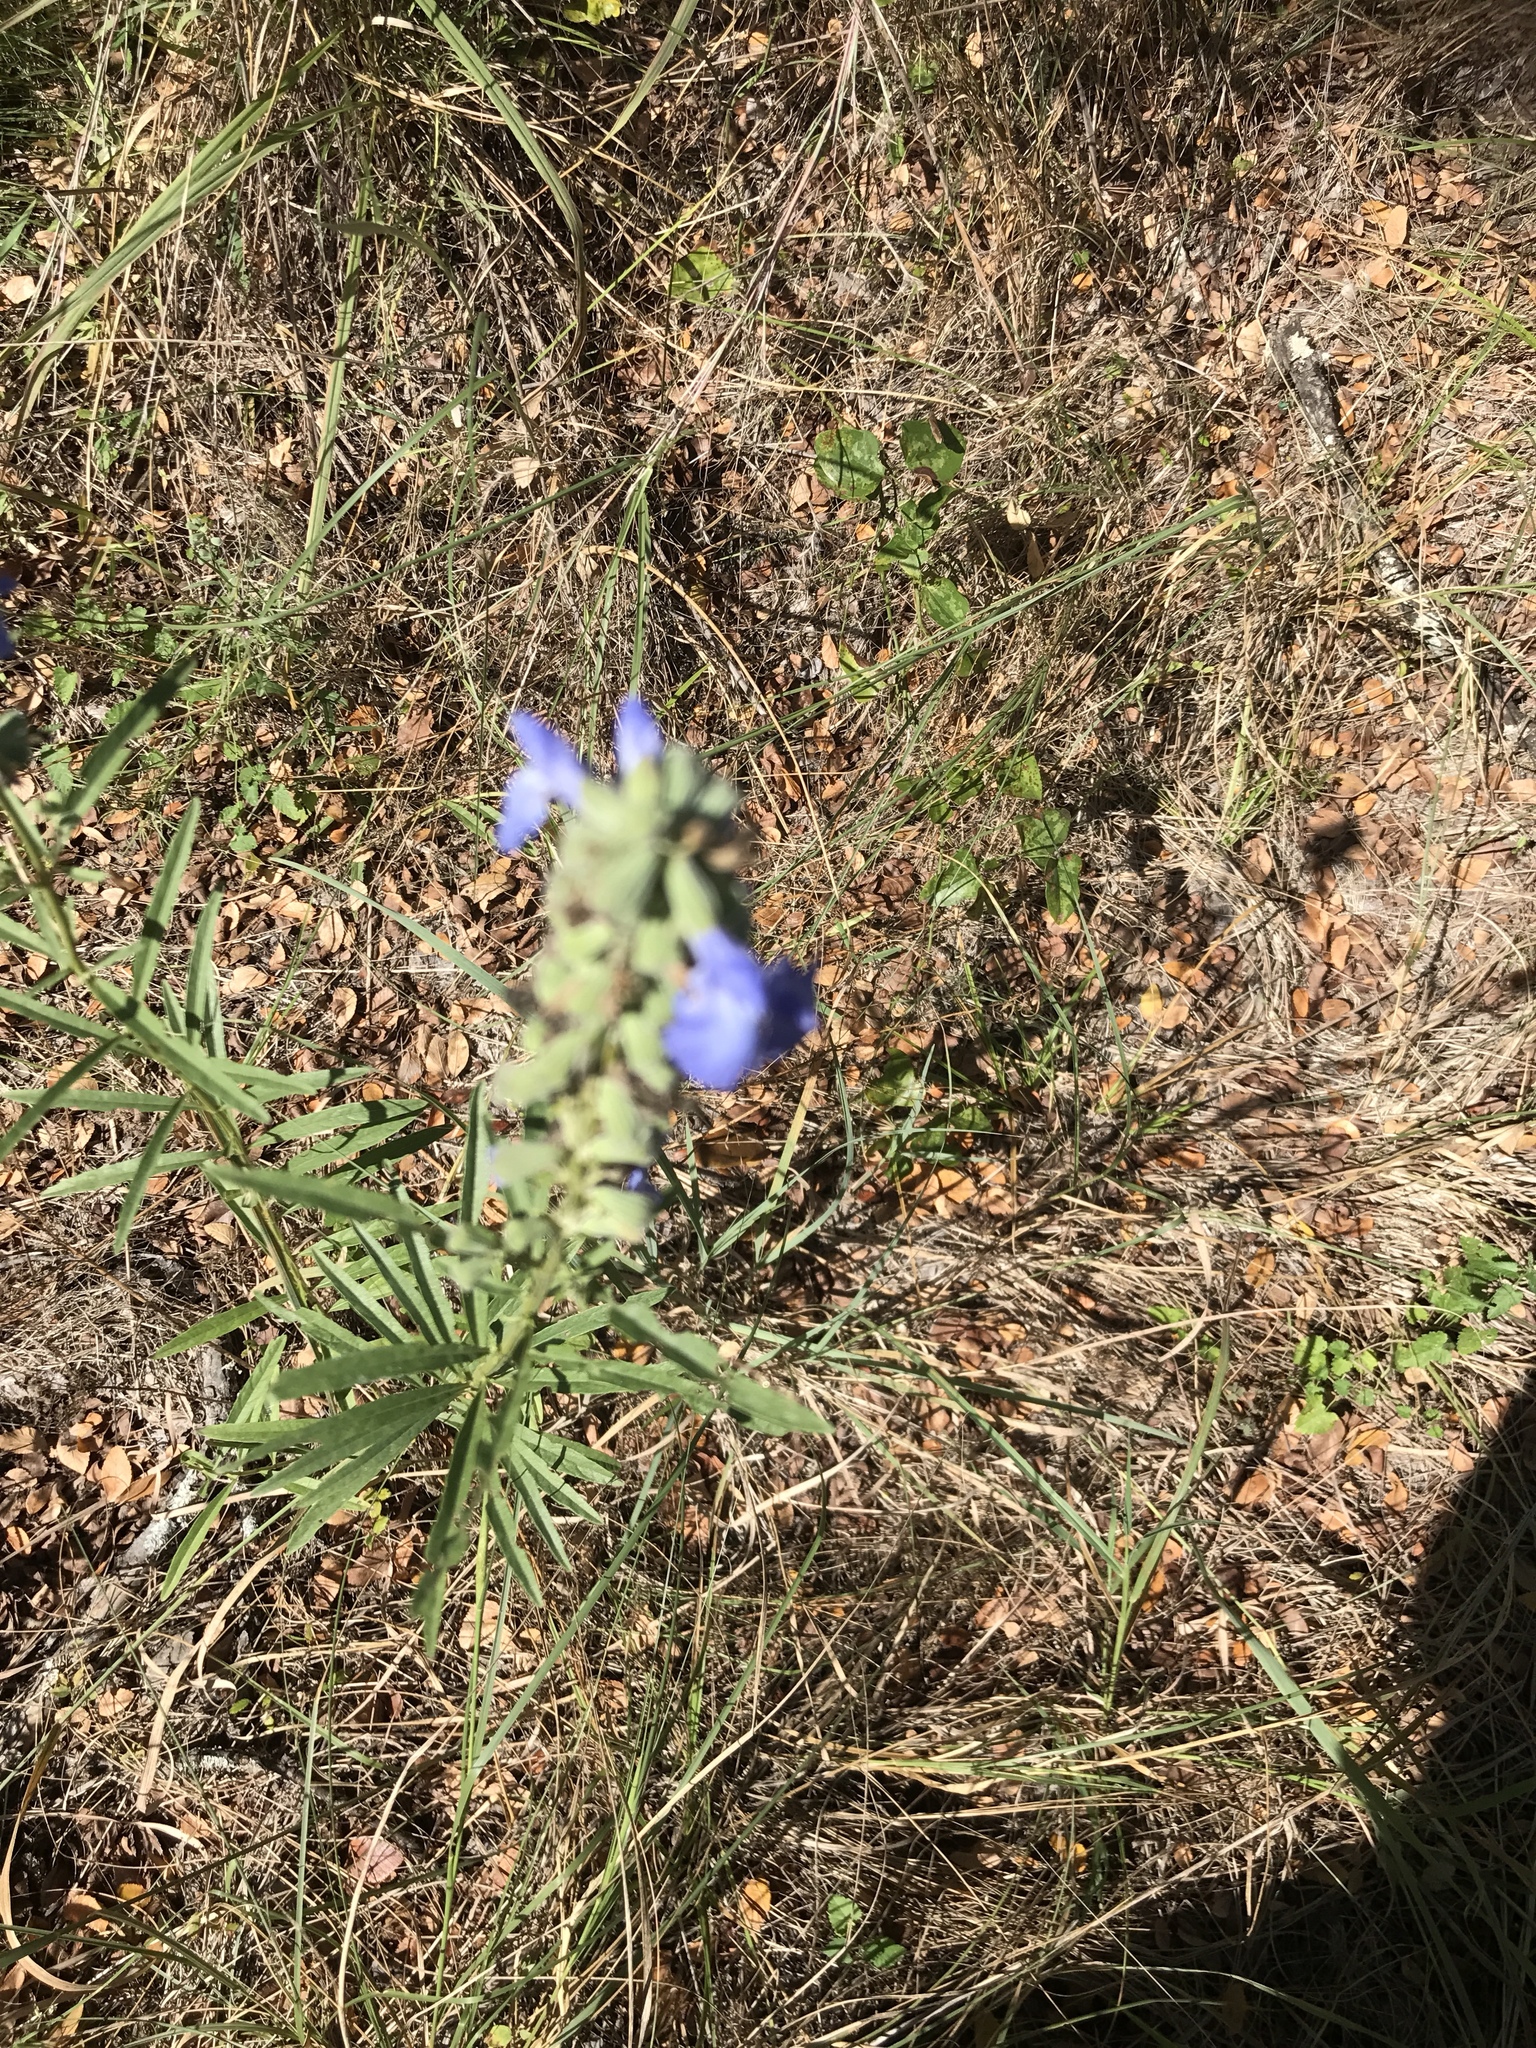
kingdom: Plantae
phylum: Tracheophyta
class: Magnoliopsida
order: Lamiales
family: Lamiaceae
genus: Salvia
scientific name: Salvia azurea
